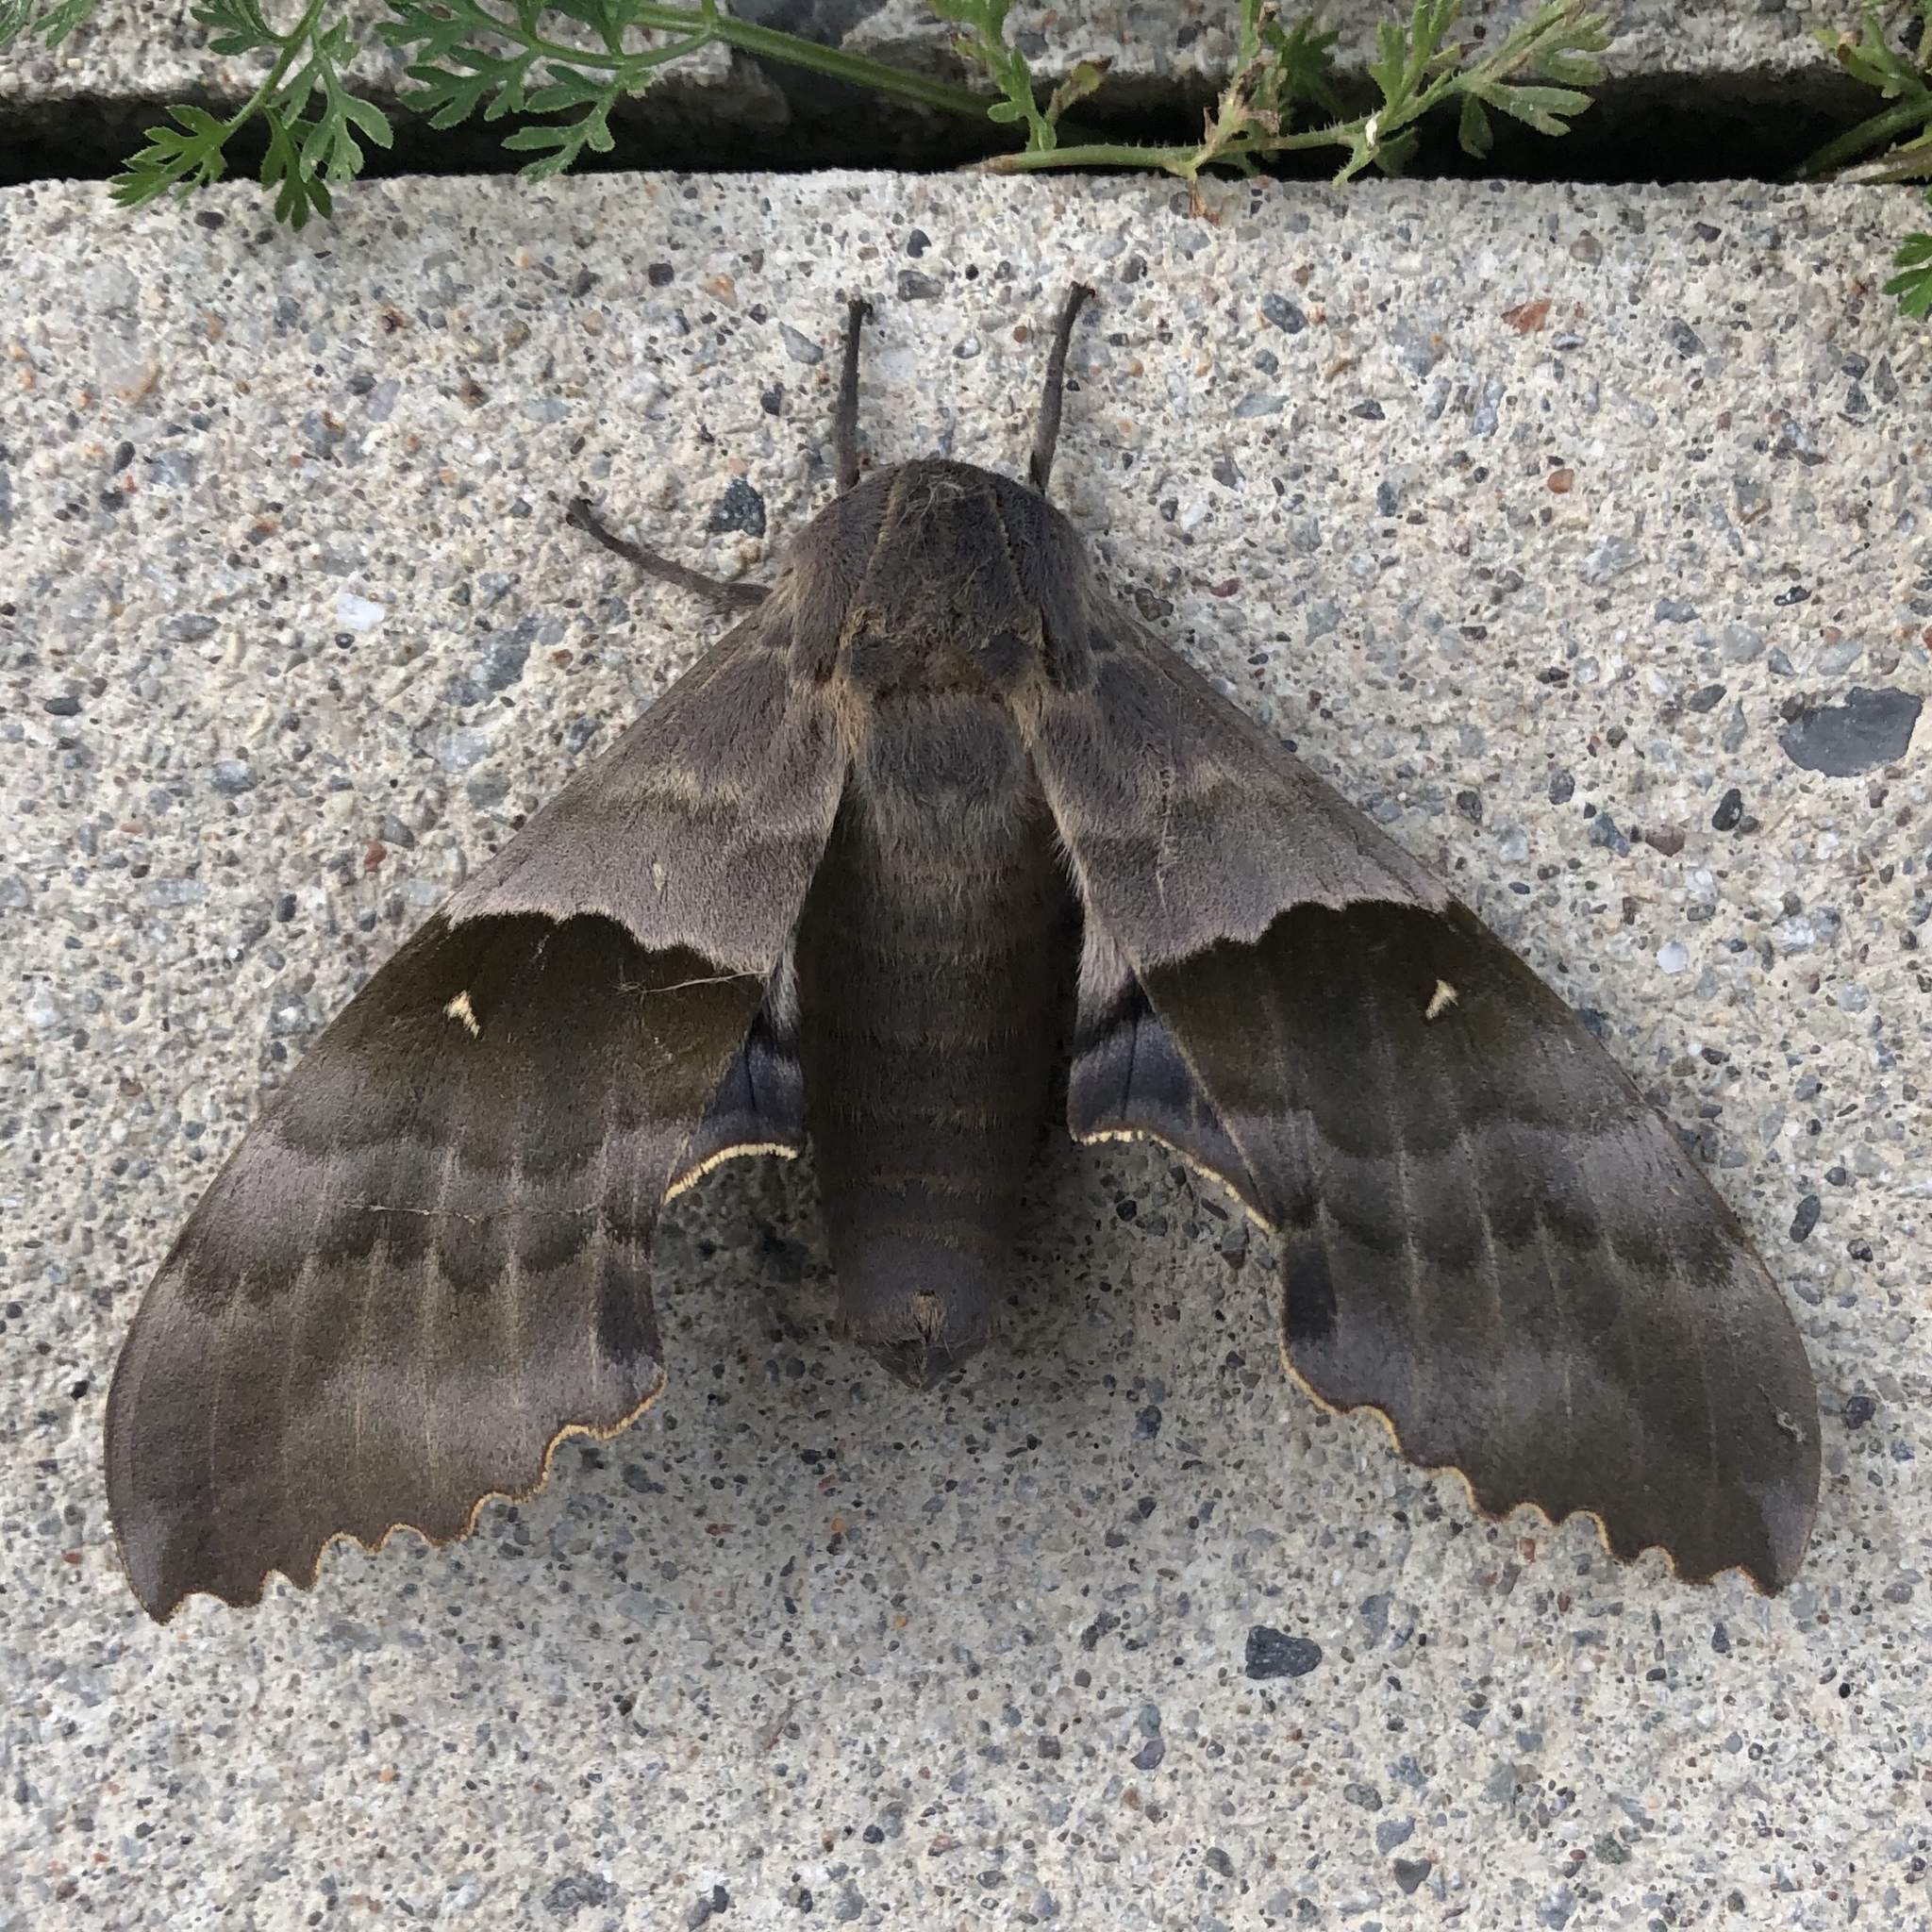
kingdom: Animalia
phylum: Arthropoda
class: Insecta
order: Lepidoptera
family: Sphingidae
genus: Pachysphinx
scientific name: Pachysphinx modesta
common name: Big poplar sphinx
